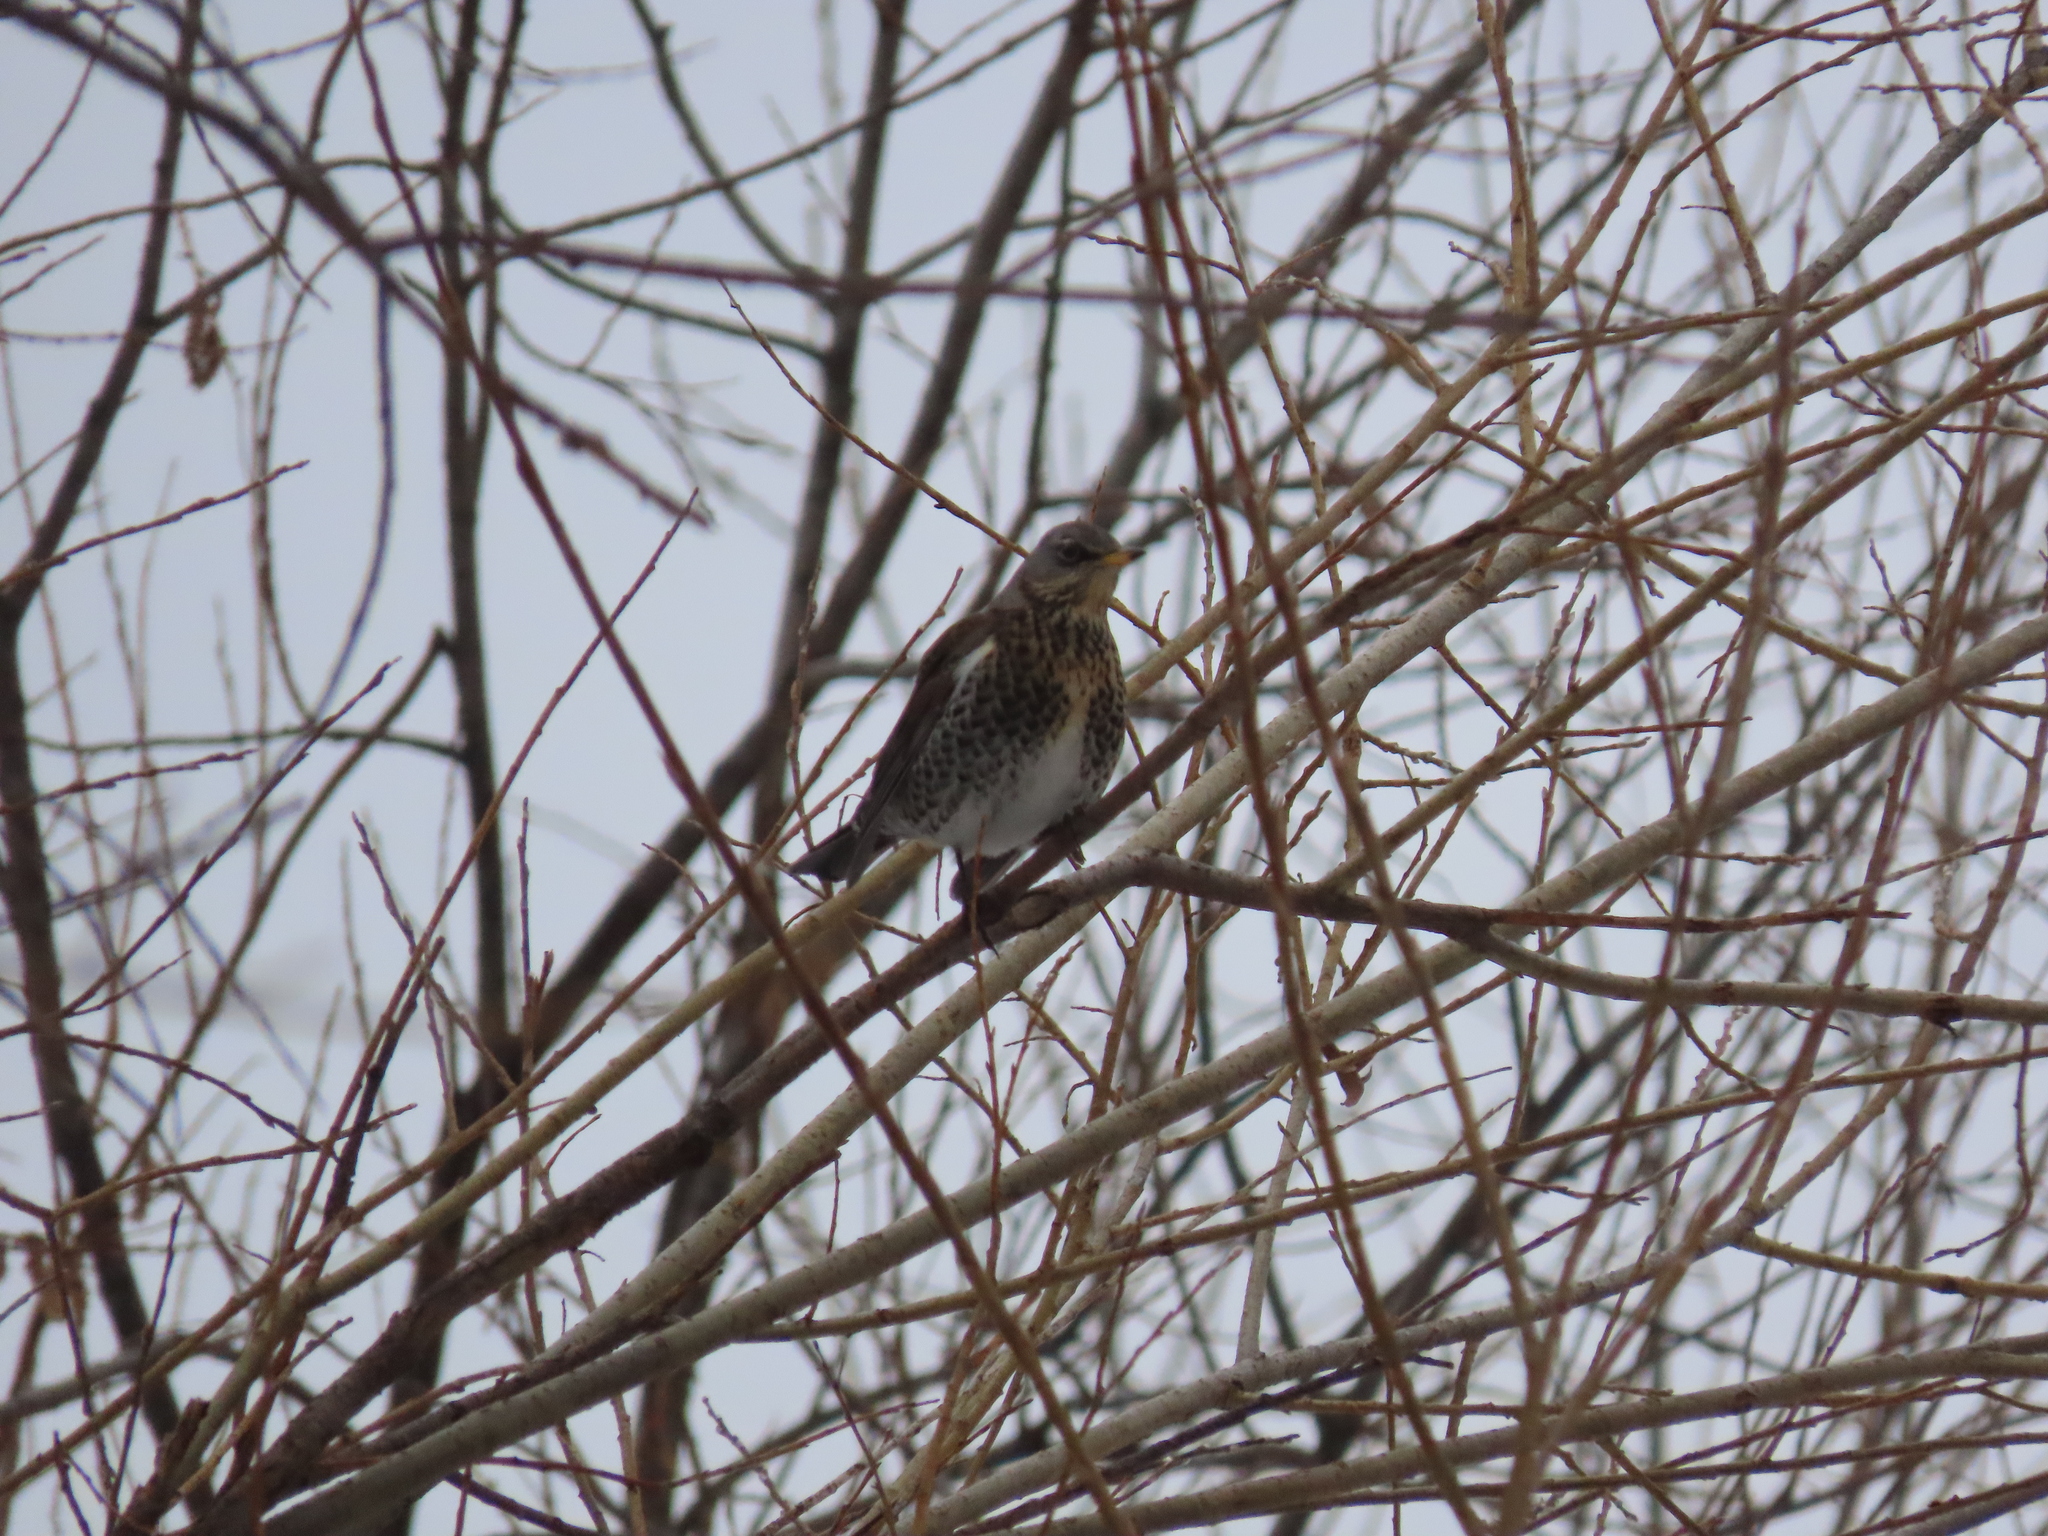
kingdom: Animalia
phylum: Chordata
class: Aves
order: Passeriformes
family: Turdidae
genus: Turdus
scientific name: Turdus pilaris
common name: Fieldfare
